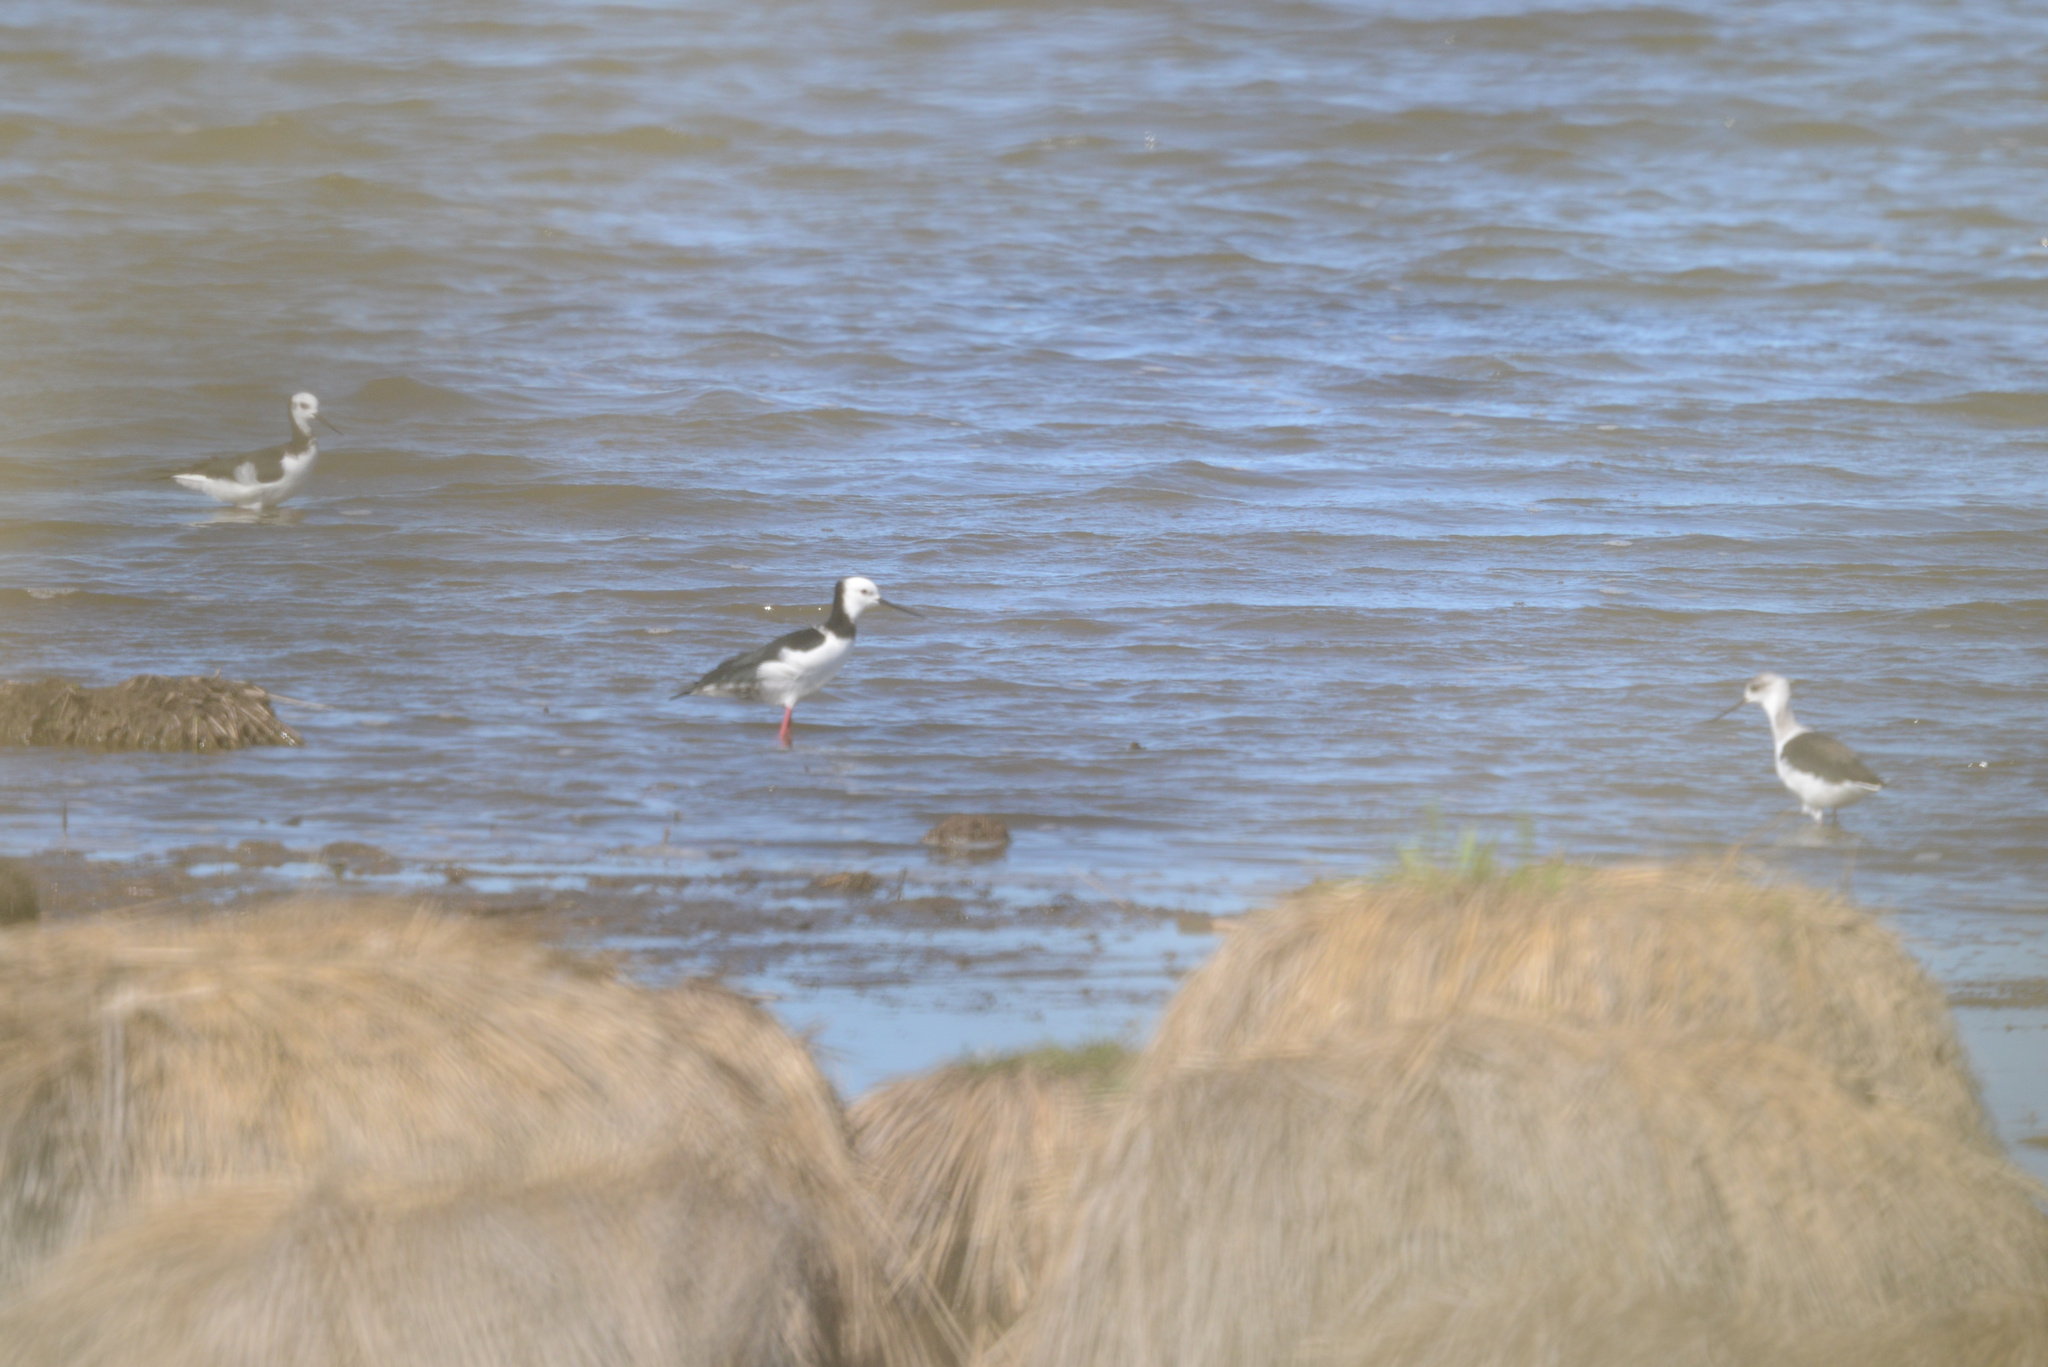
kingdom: Animalia
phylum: Chordata
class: Aves
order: Charadriiformes
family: Recurvirostridae
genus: Himantopus
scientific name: Himantopus leucocephalus
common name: White-headed stilt
